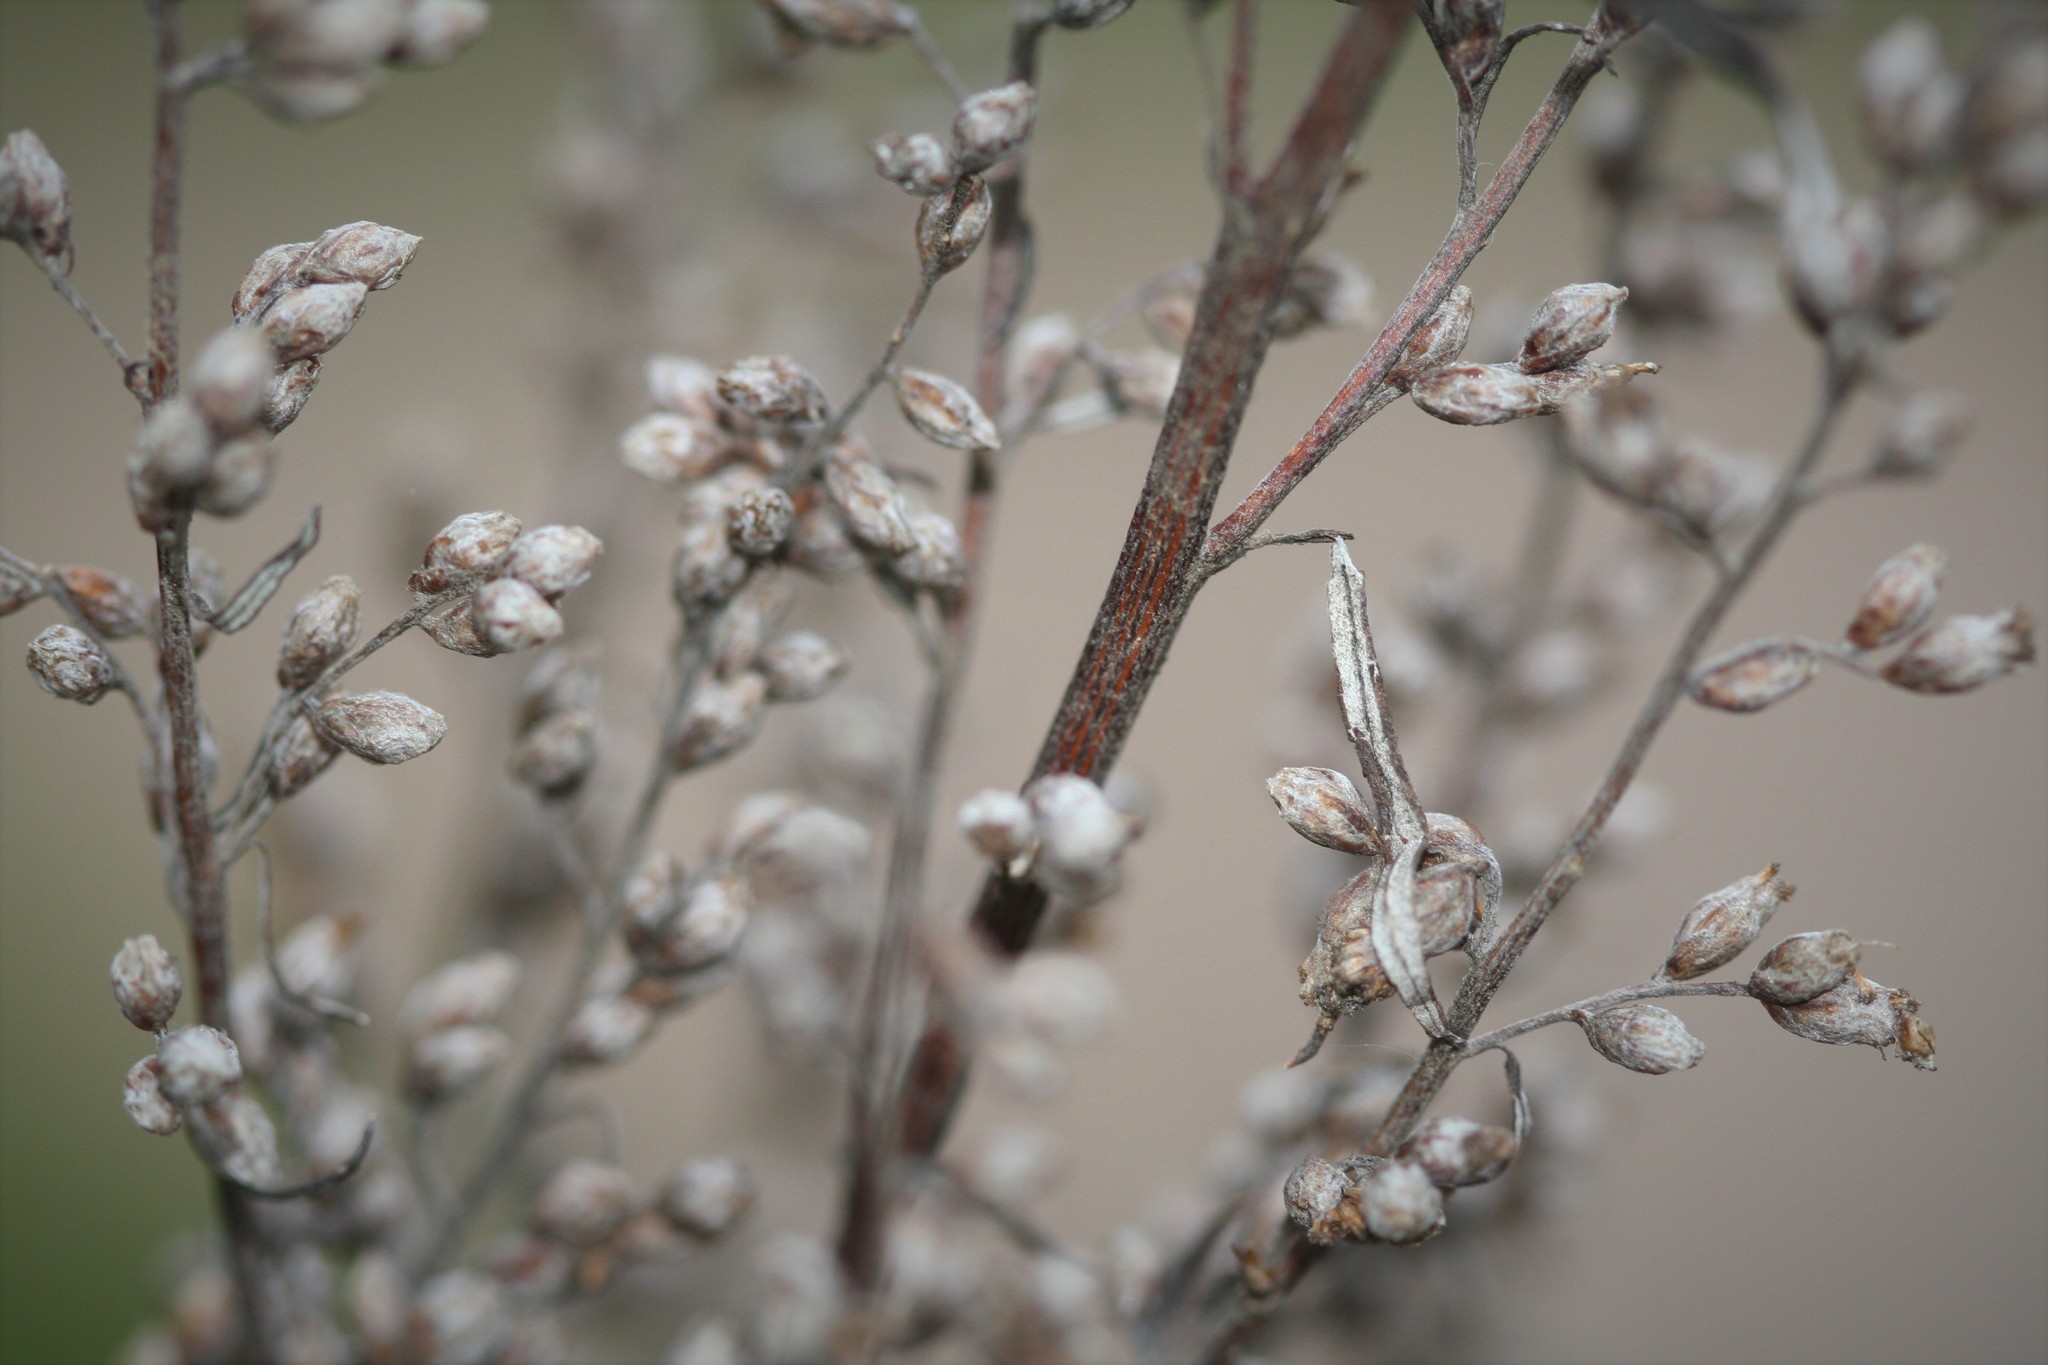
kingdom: Plantae
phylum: Tracheophyta
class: Magnoliopsida
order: Asterales
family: Asteraceae
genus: Artemisia
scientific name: Artemisia vulgaris
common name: Mugwort
